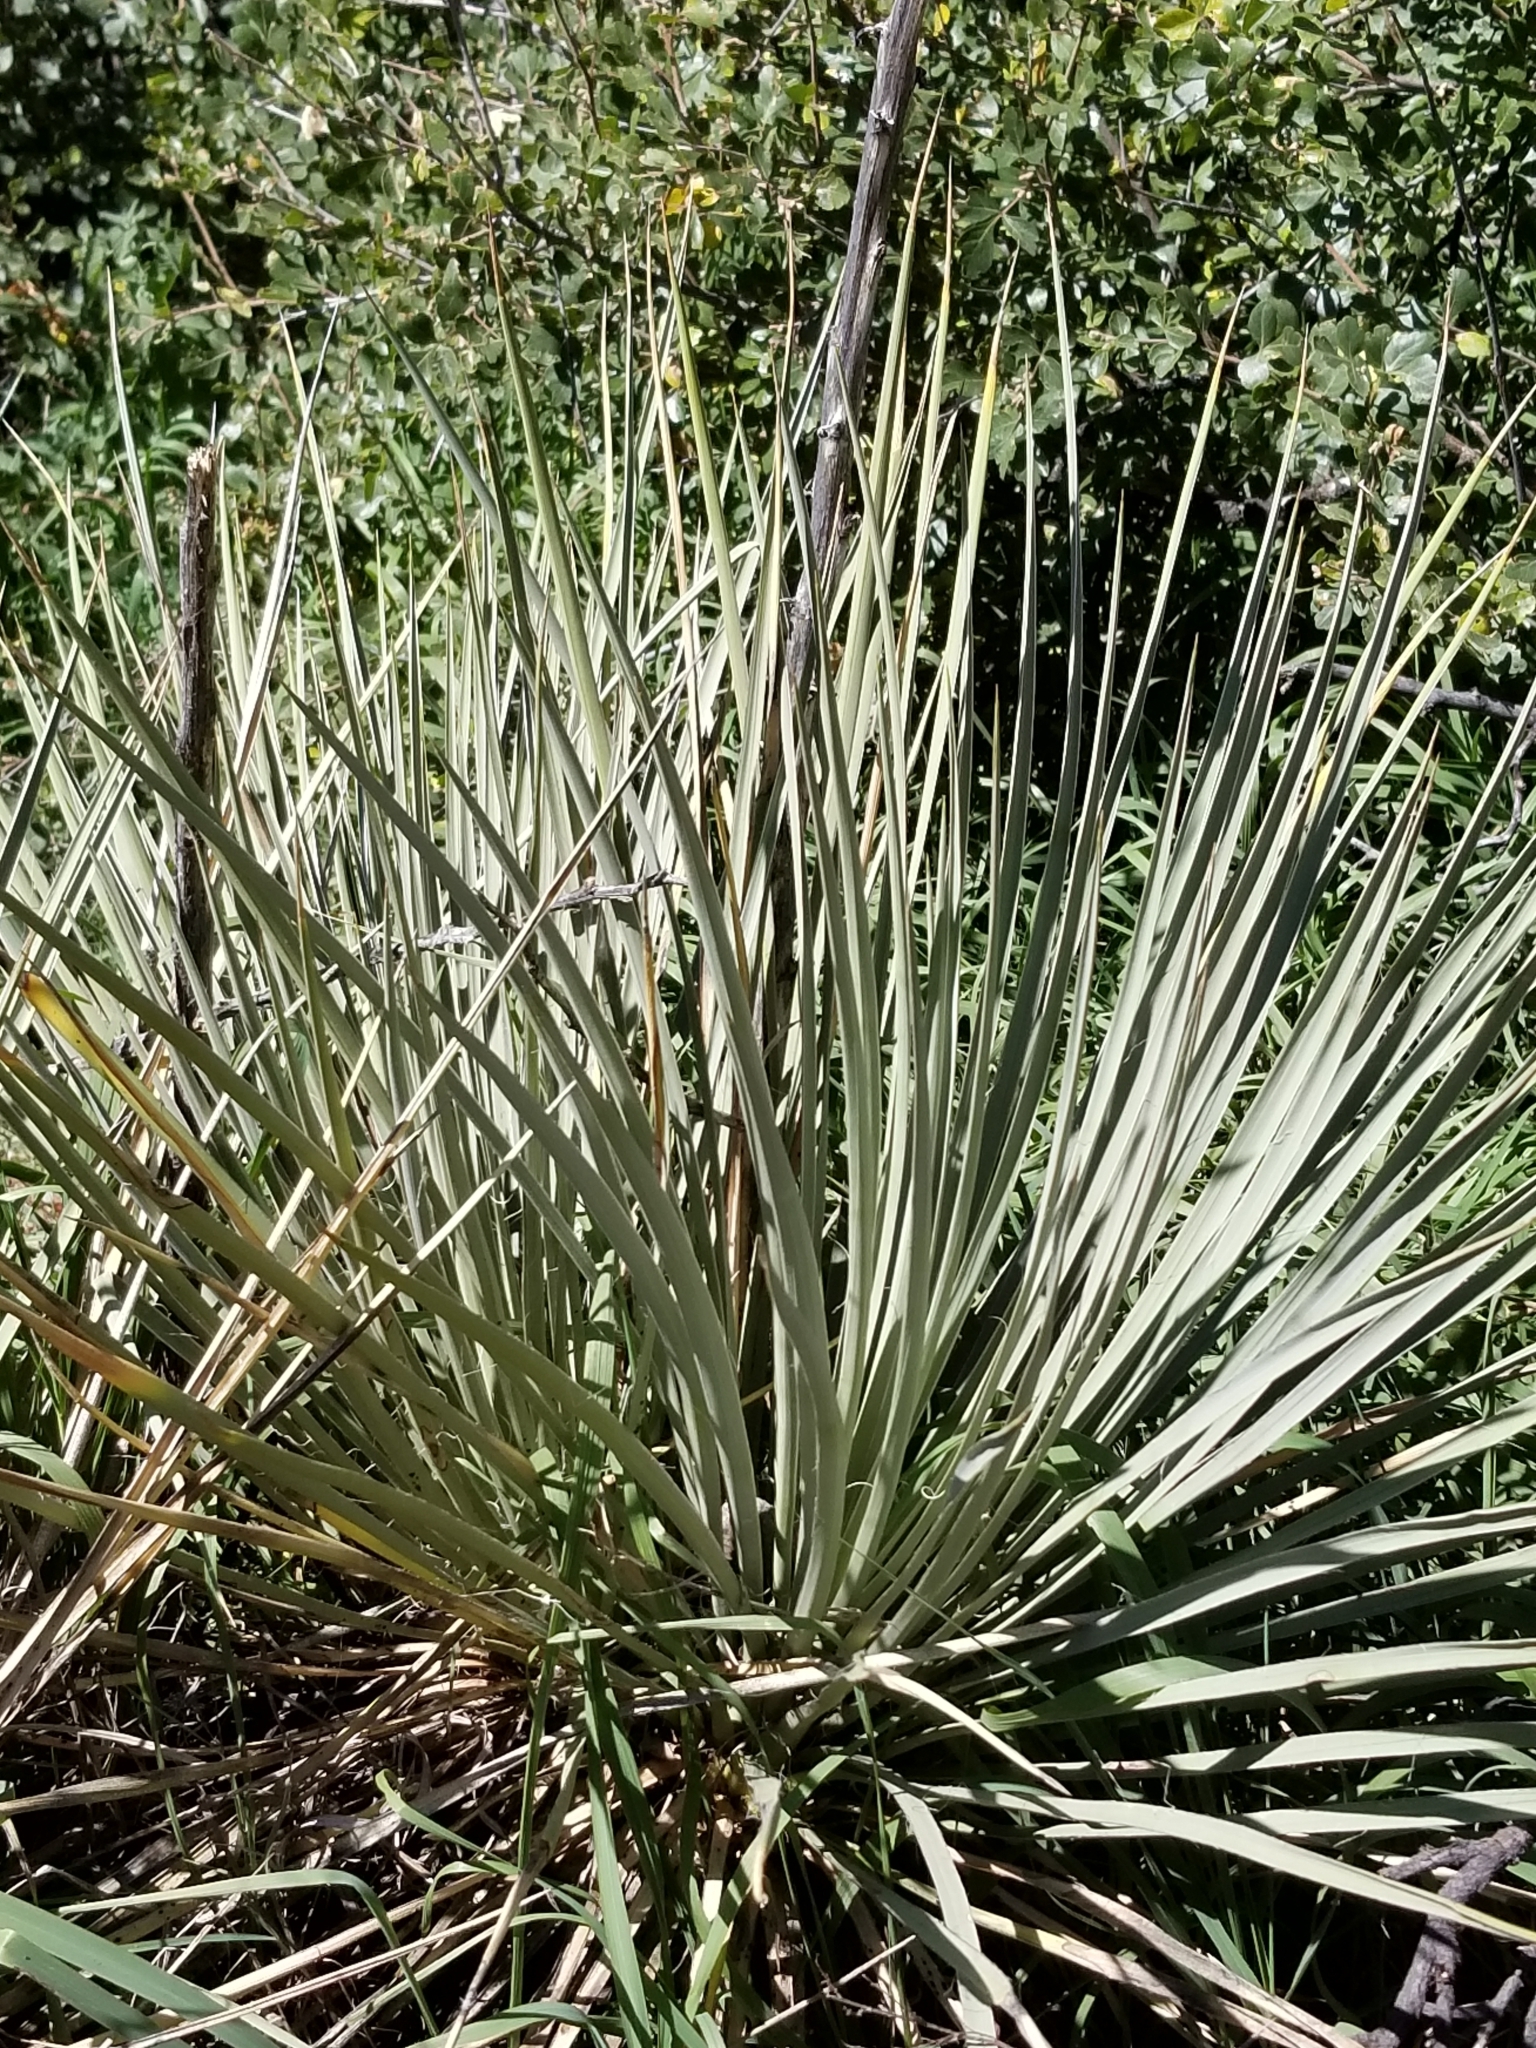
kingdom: Plantae
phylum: Tracheophyta
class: Liliopsida
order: Asparagales
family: Asparagaceae
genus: Yucca
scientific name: Yucca glauca
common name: Great plains yucca
